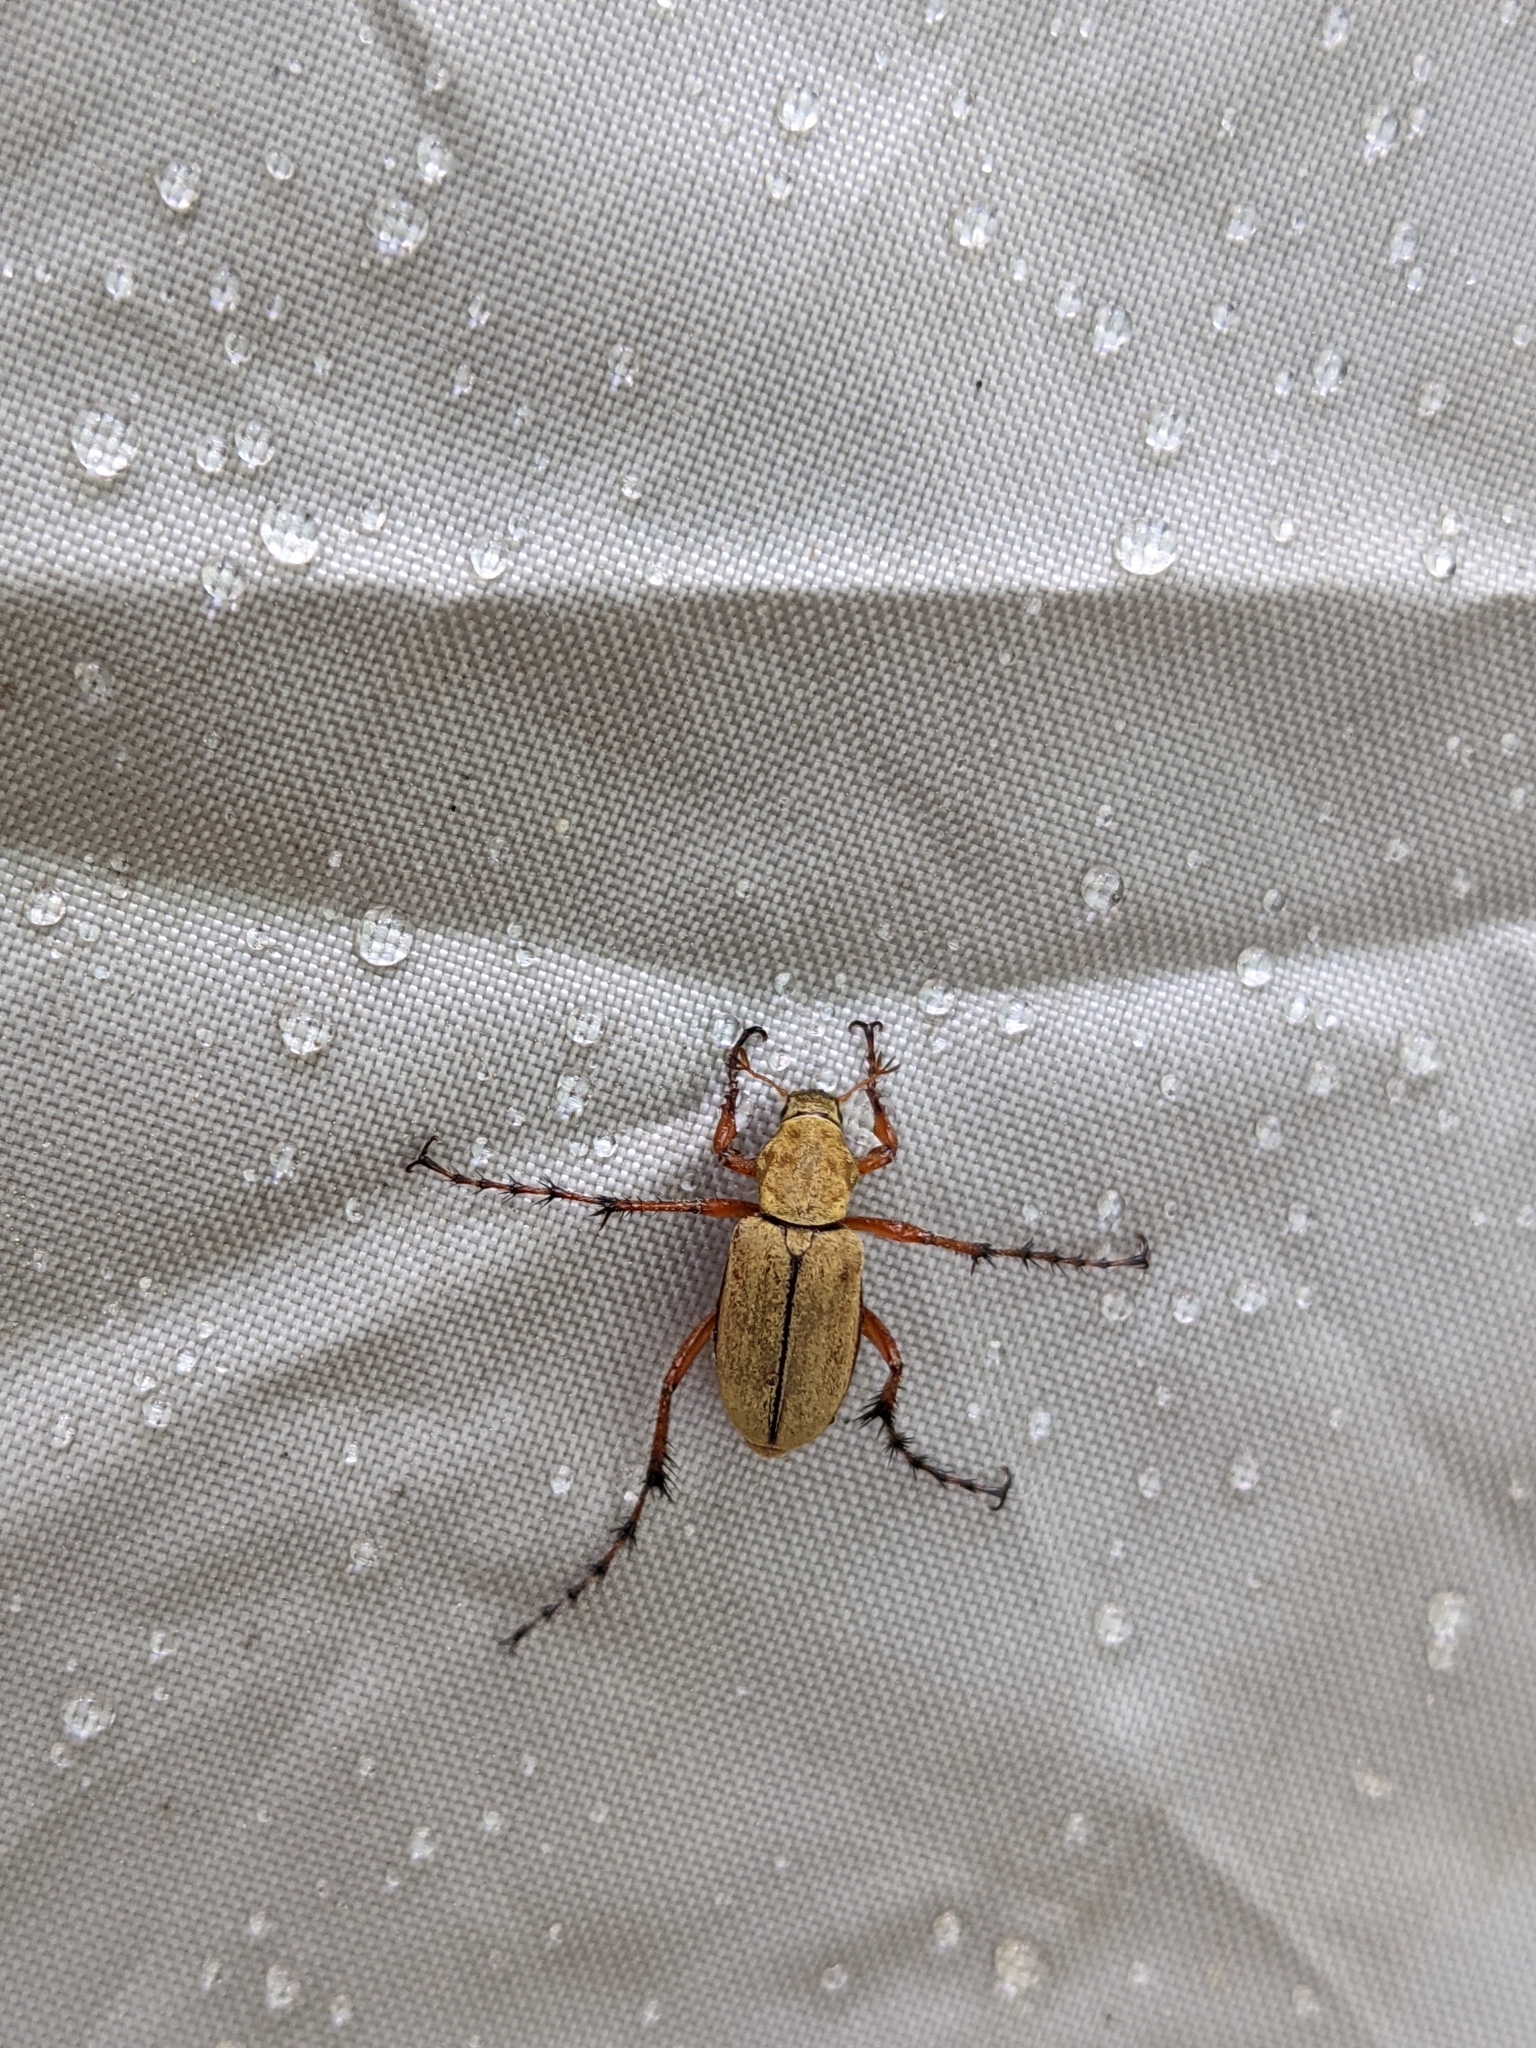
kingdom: Animalia
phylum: Arthropoda
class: Insecta
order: Coleoptera
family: Scarabaeidae
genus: Macrodactylus
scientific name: Macrodactylus subspinosus
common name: American rose chafer
